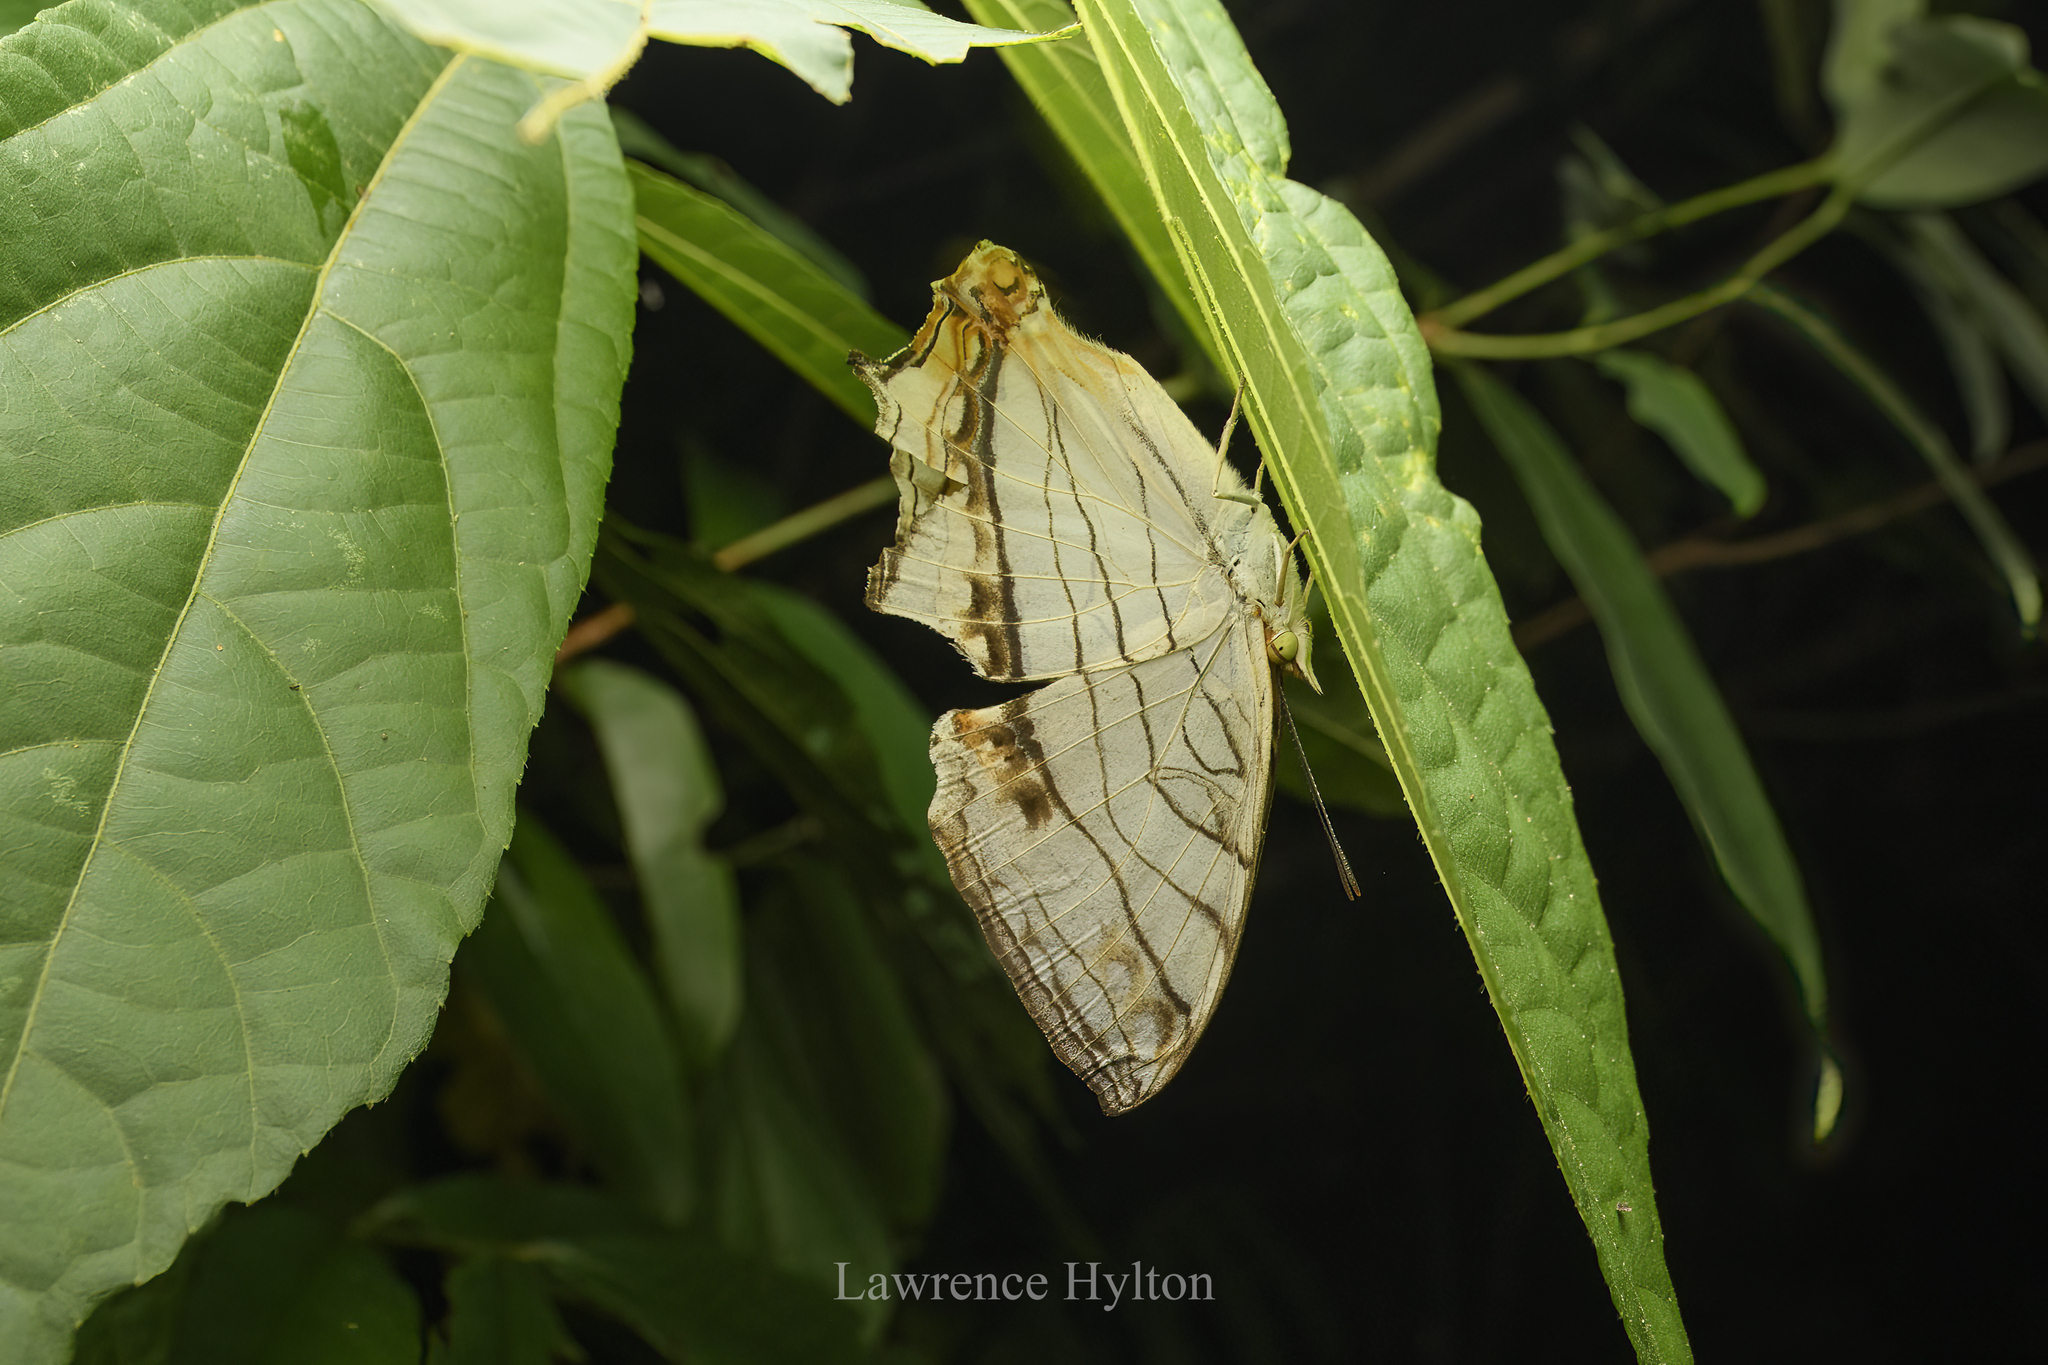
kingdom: Animalia
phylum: Arthropoda
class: Insecta
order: Lepidoptera
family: Nymphalidae
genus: Cyrestis
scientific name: Cyrestis thyodamas
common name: Common mapwing
